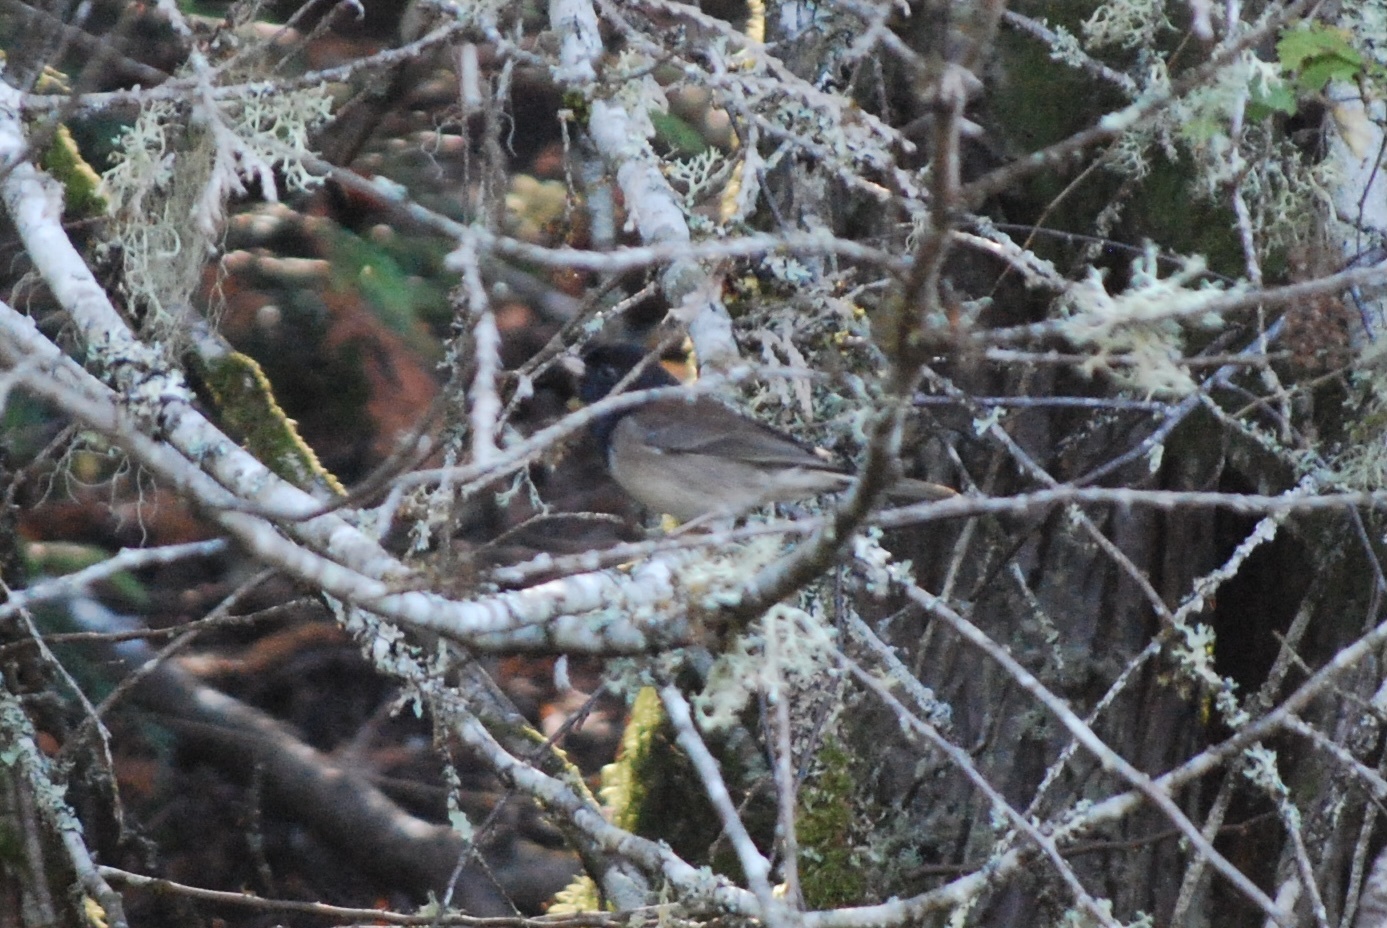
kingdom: Animalia
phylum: Chordata
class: Aves
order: Passeriformes
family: Passerellidae
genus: Junco
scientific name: Junco hyemalis
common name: Dark-eyed junco
